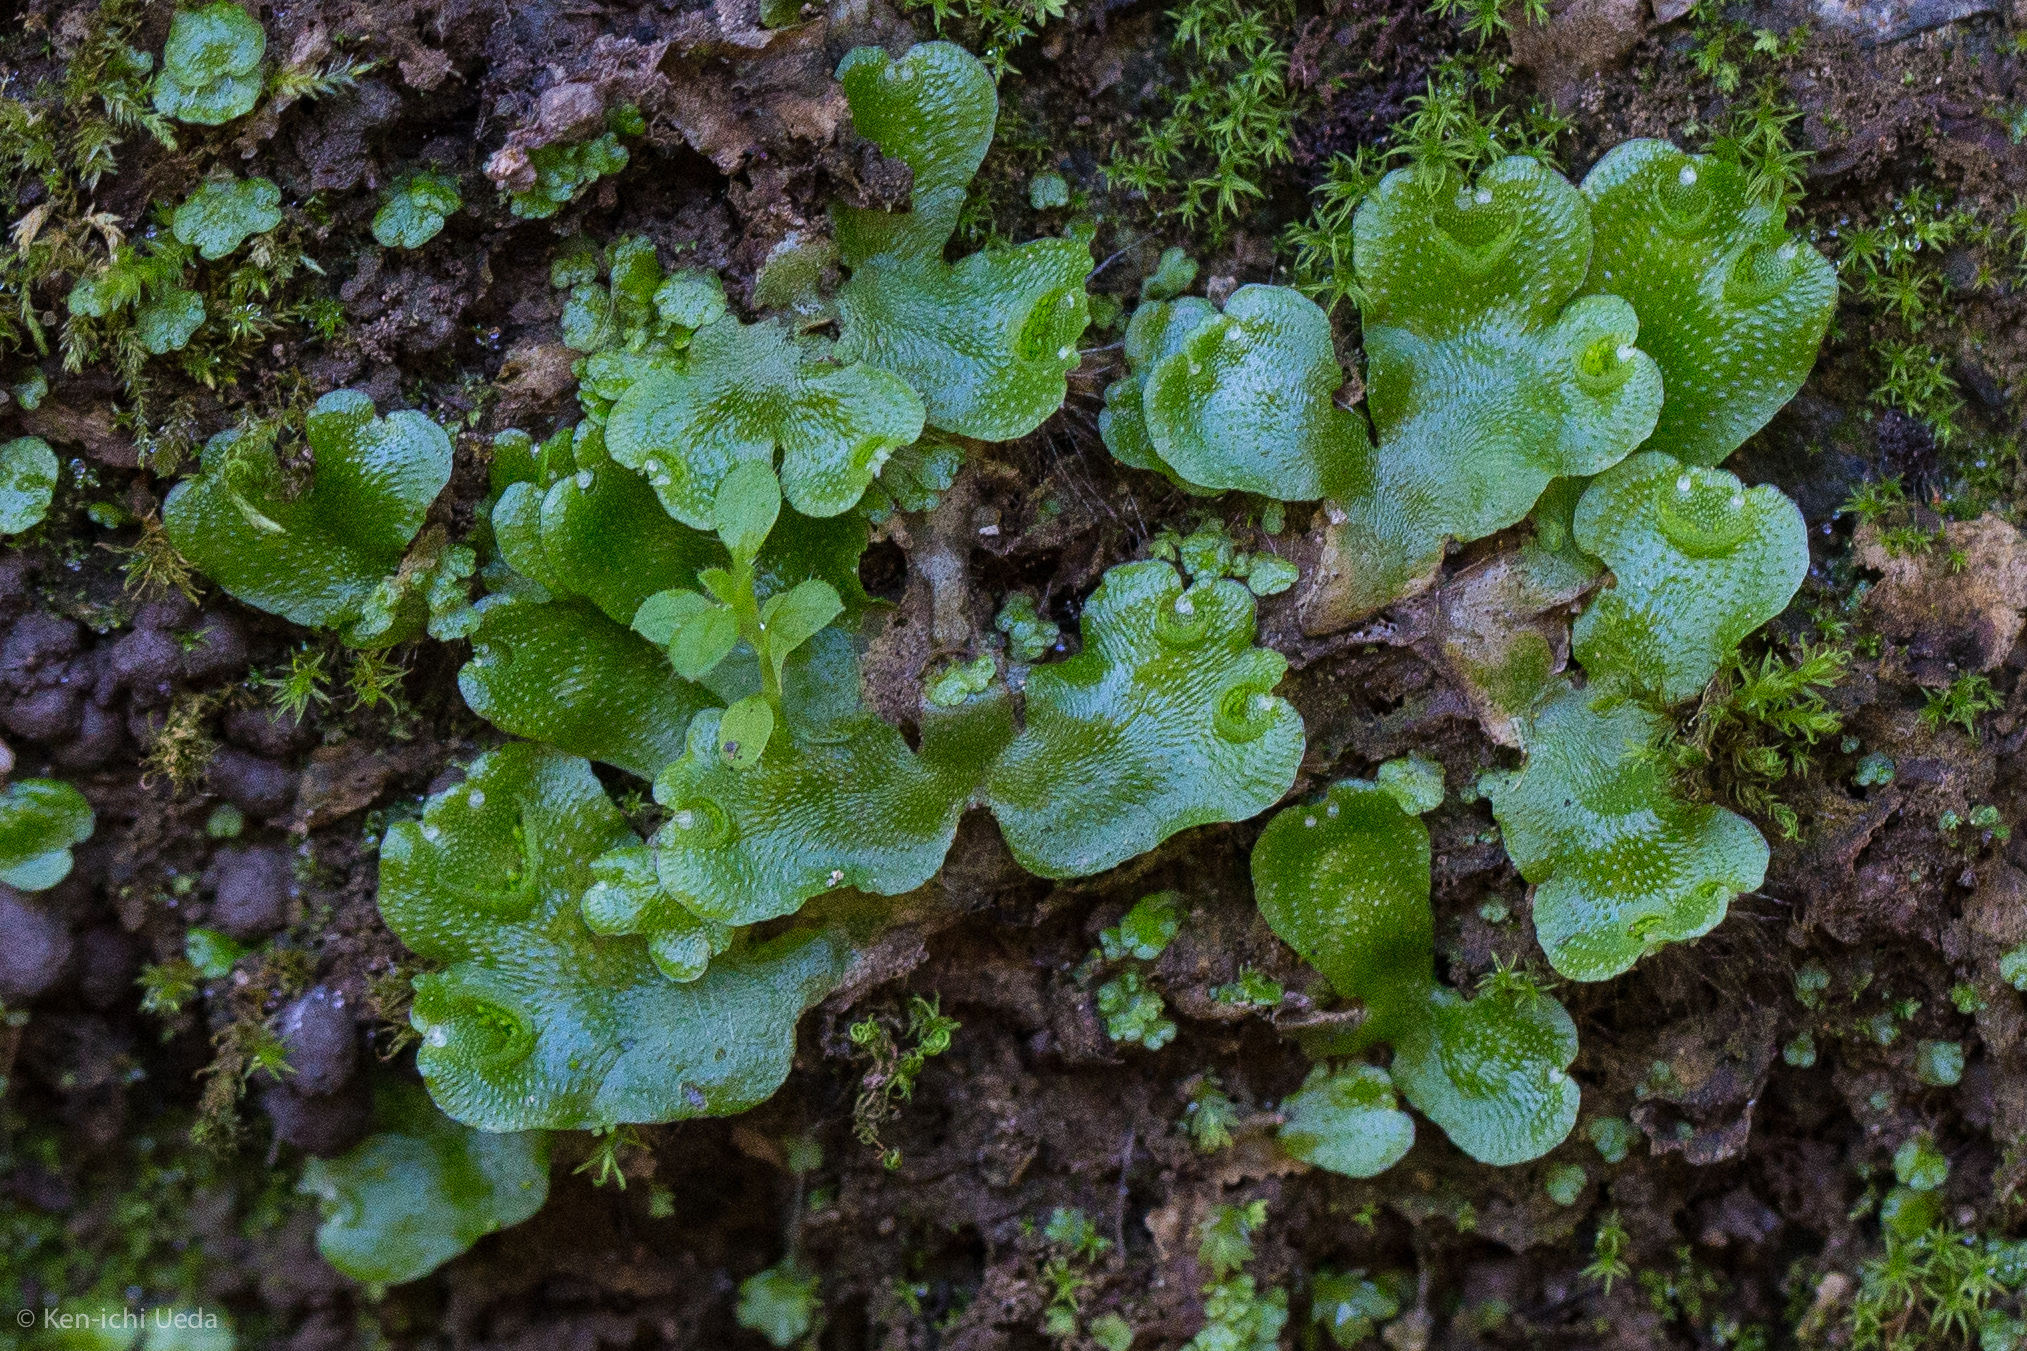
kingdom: Plantae
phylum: Marchantiophyta
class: Marchantiopsida
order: Lunulariales
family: Lunulariaceae
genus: Lunularia
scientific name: Lunularia cruciata
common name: Crescent-cup liverwort
